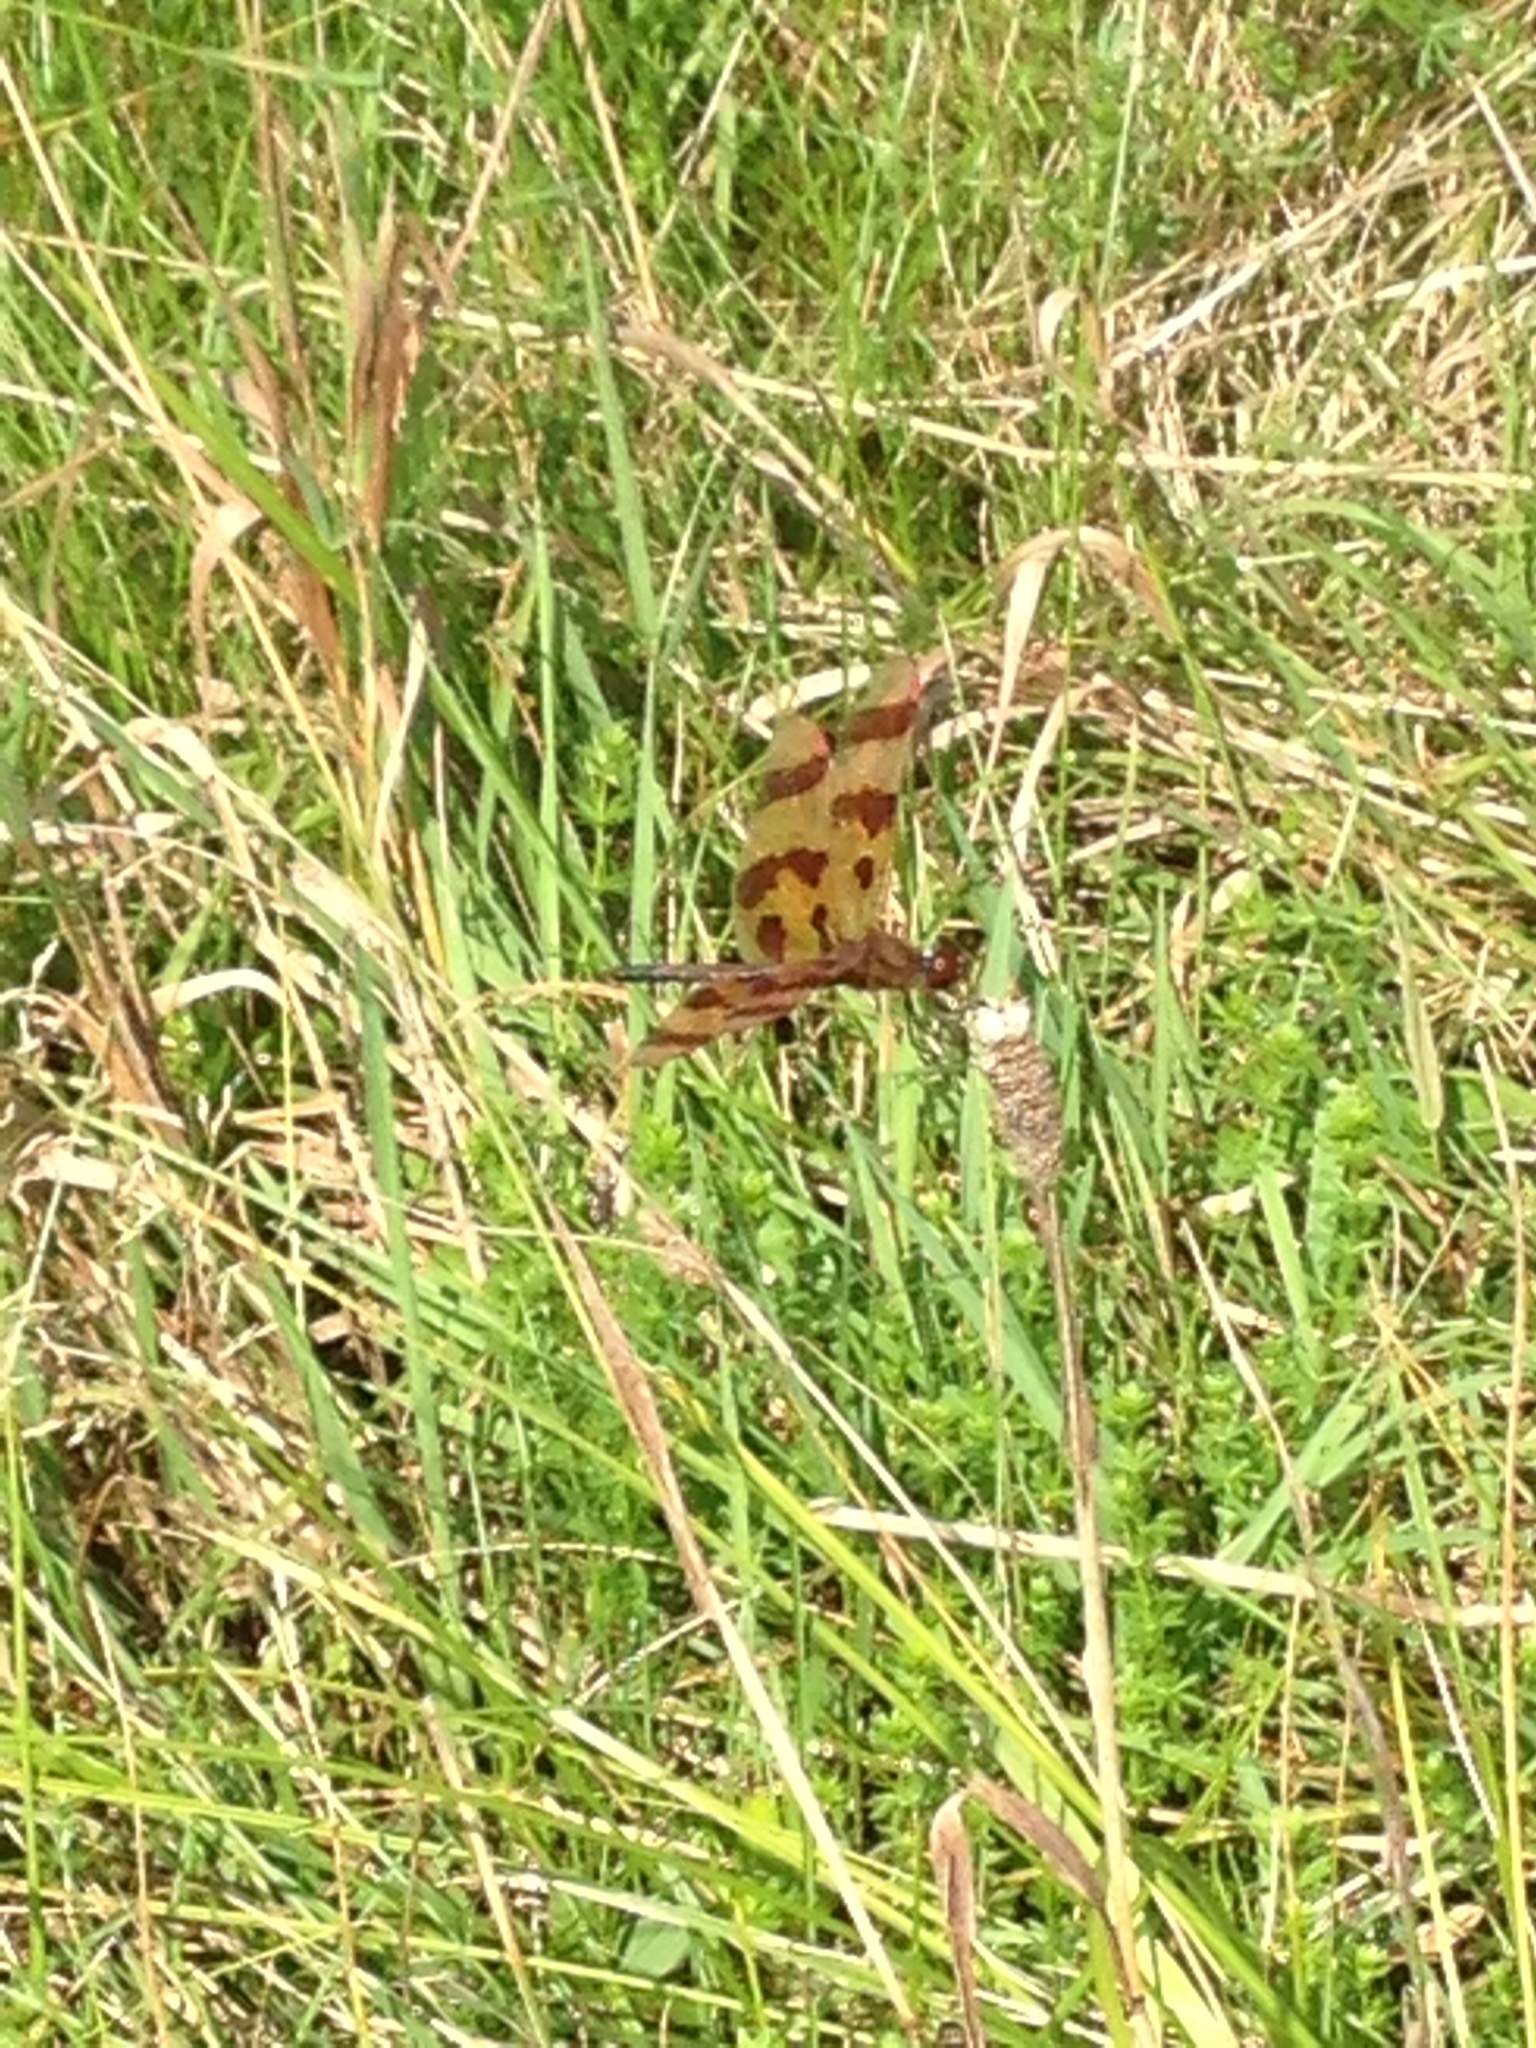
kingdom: Animalia
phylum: Arthropoda
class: Insecta
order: Odonata
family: Libellulidae
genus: Celithemis
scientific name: Celithemis eponina
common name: Halloween pennant
